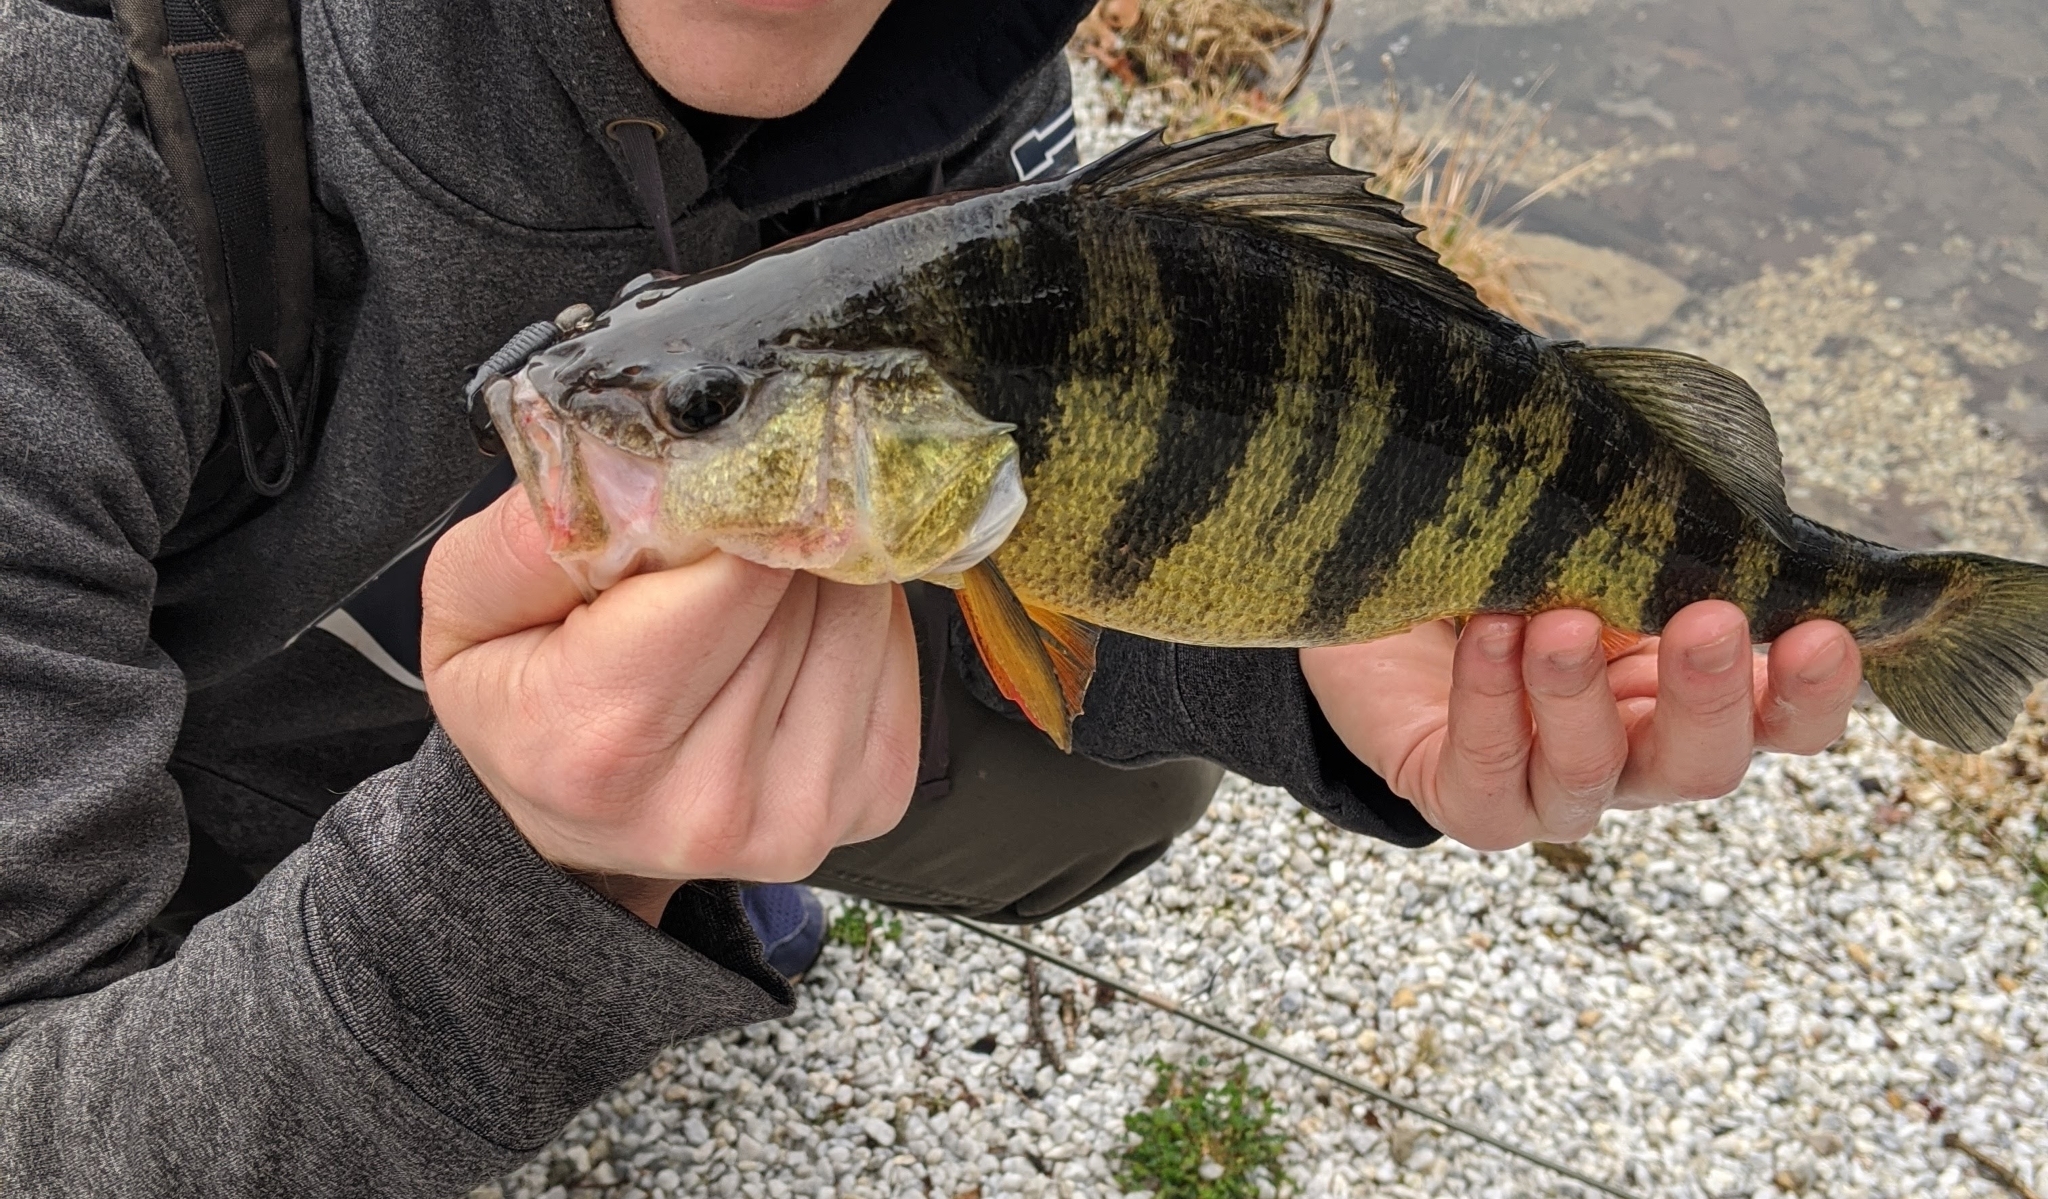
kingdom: Animalia
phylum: Chordata
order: Perciformes
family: Percidae
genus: Perca
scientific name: Perca flavescens
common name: Yellow perch
